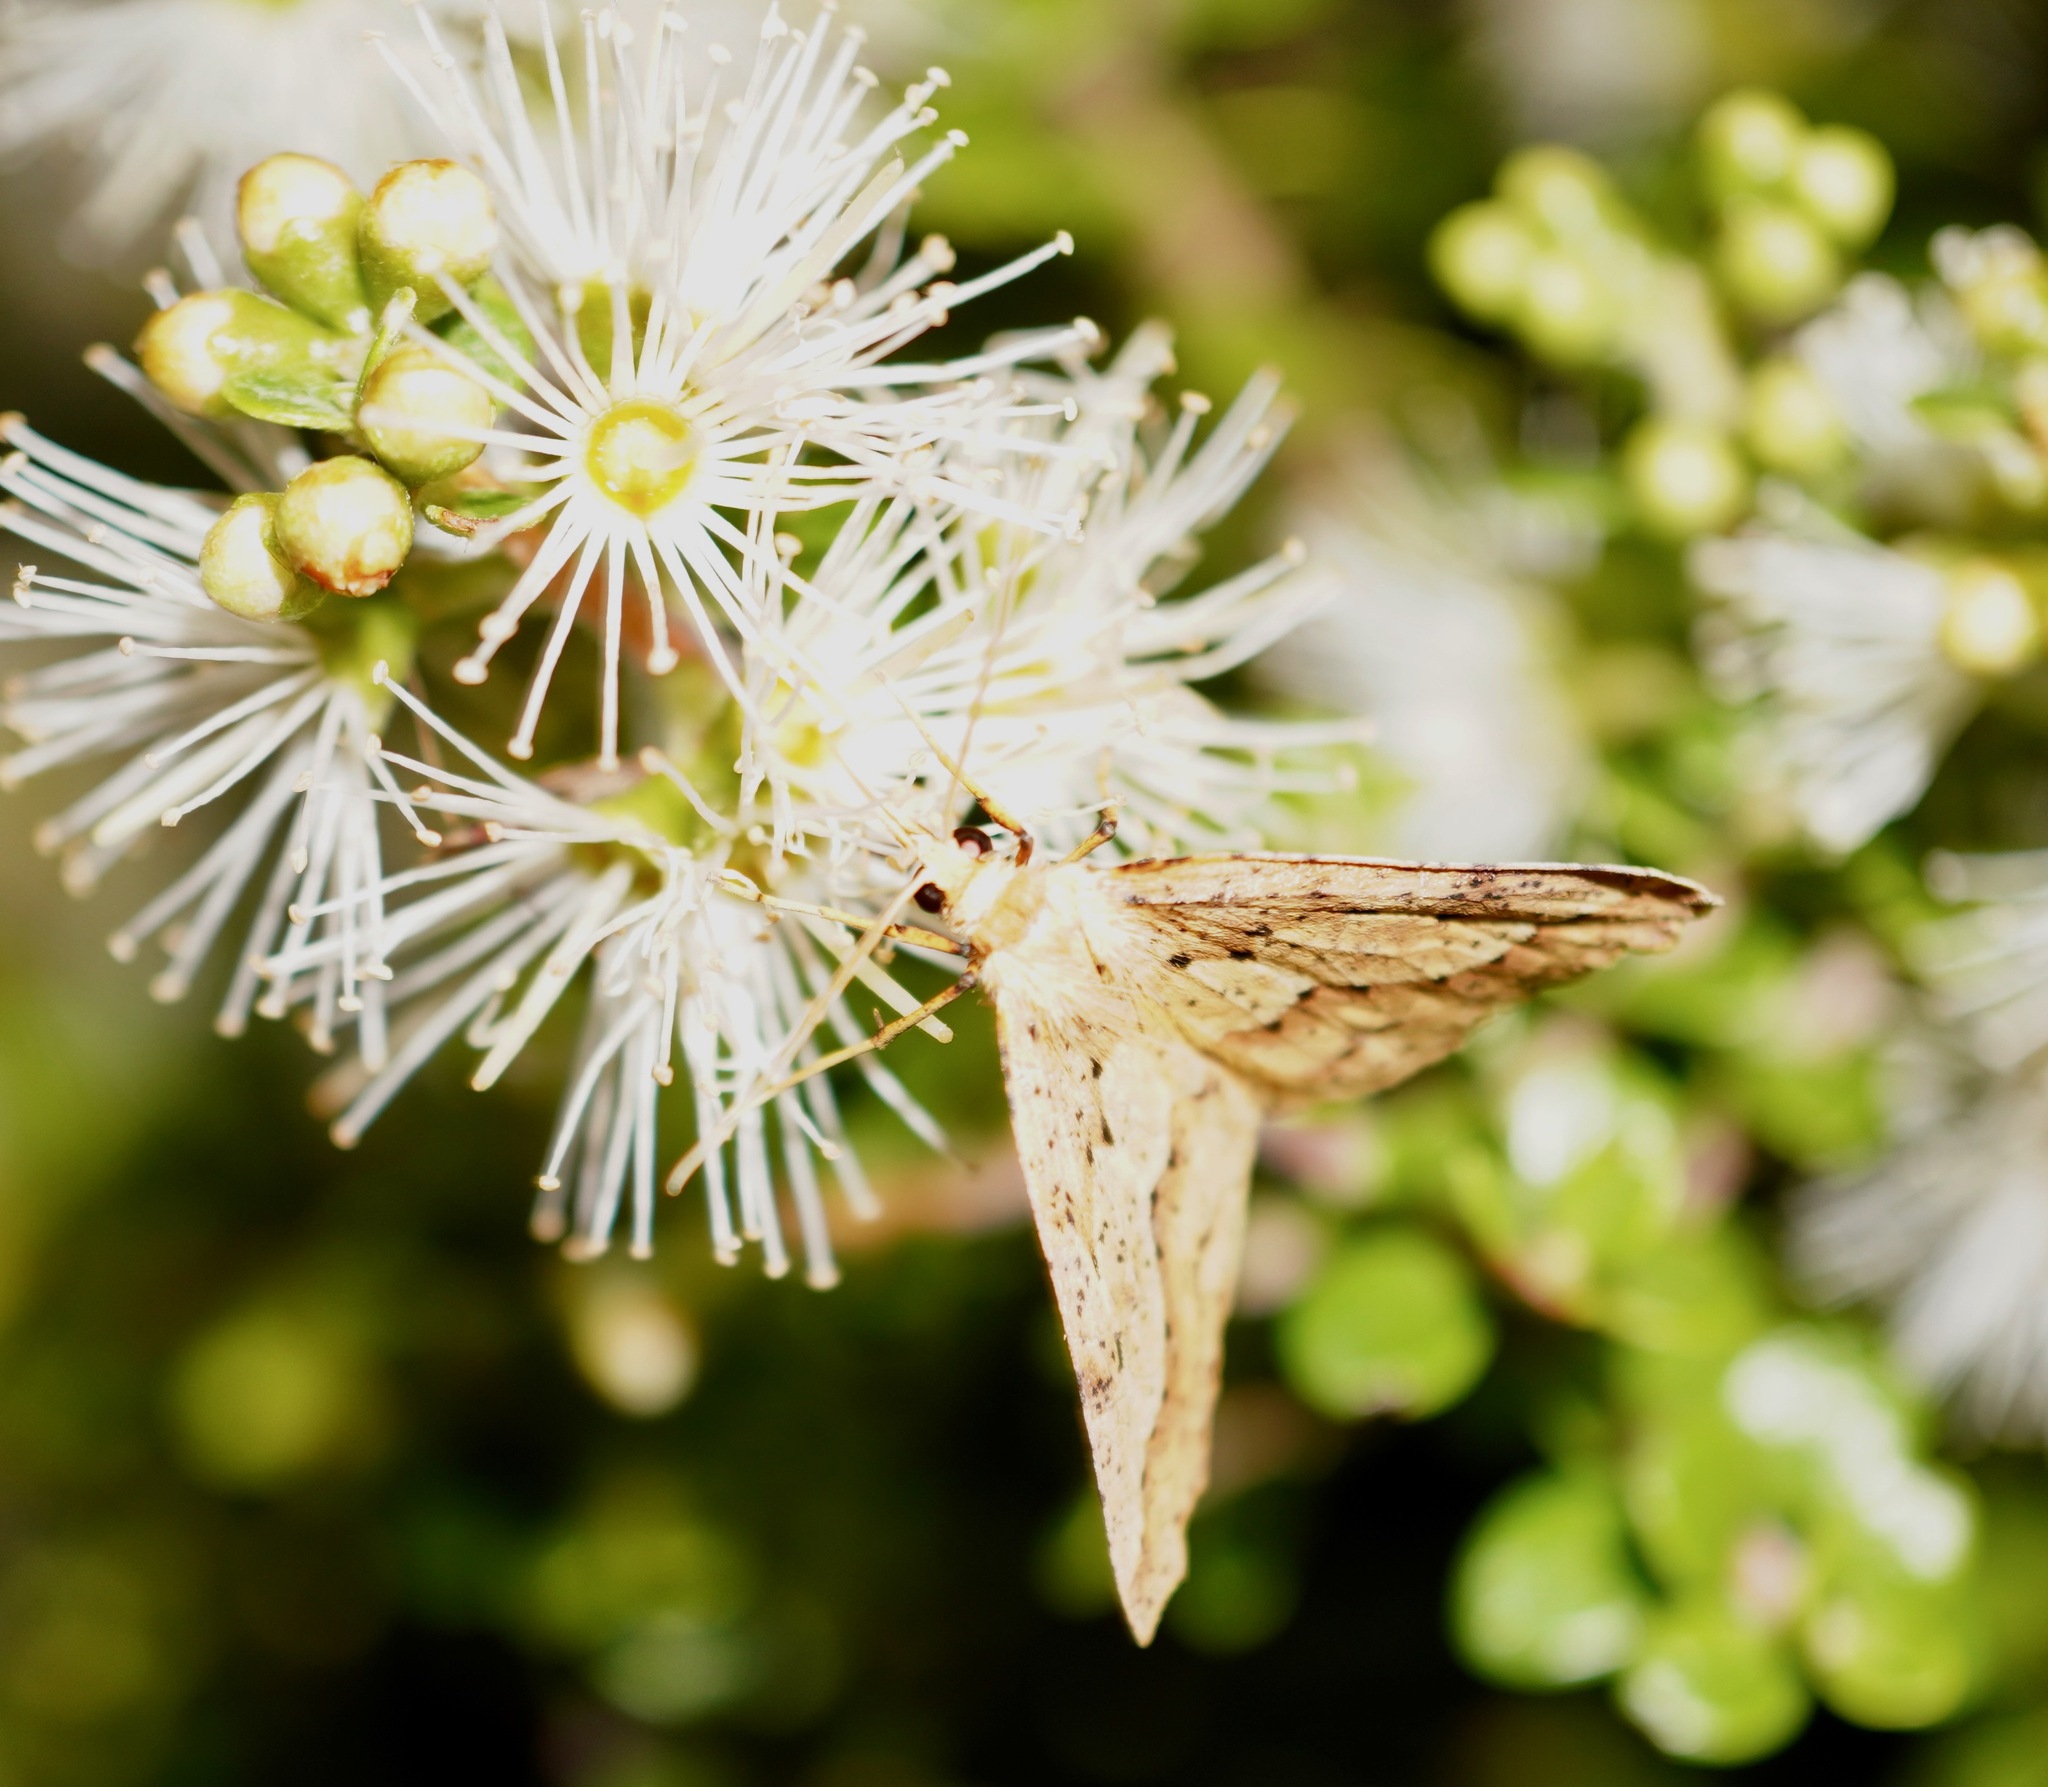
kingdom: Animalia
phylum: Arthropoda
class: Insecta
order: Lepidoptera
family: Geometridae
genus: Ischalis
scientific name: Ischalis variabilis
